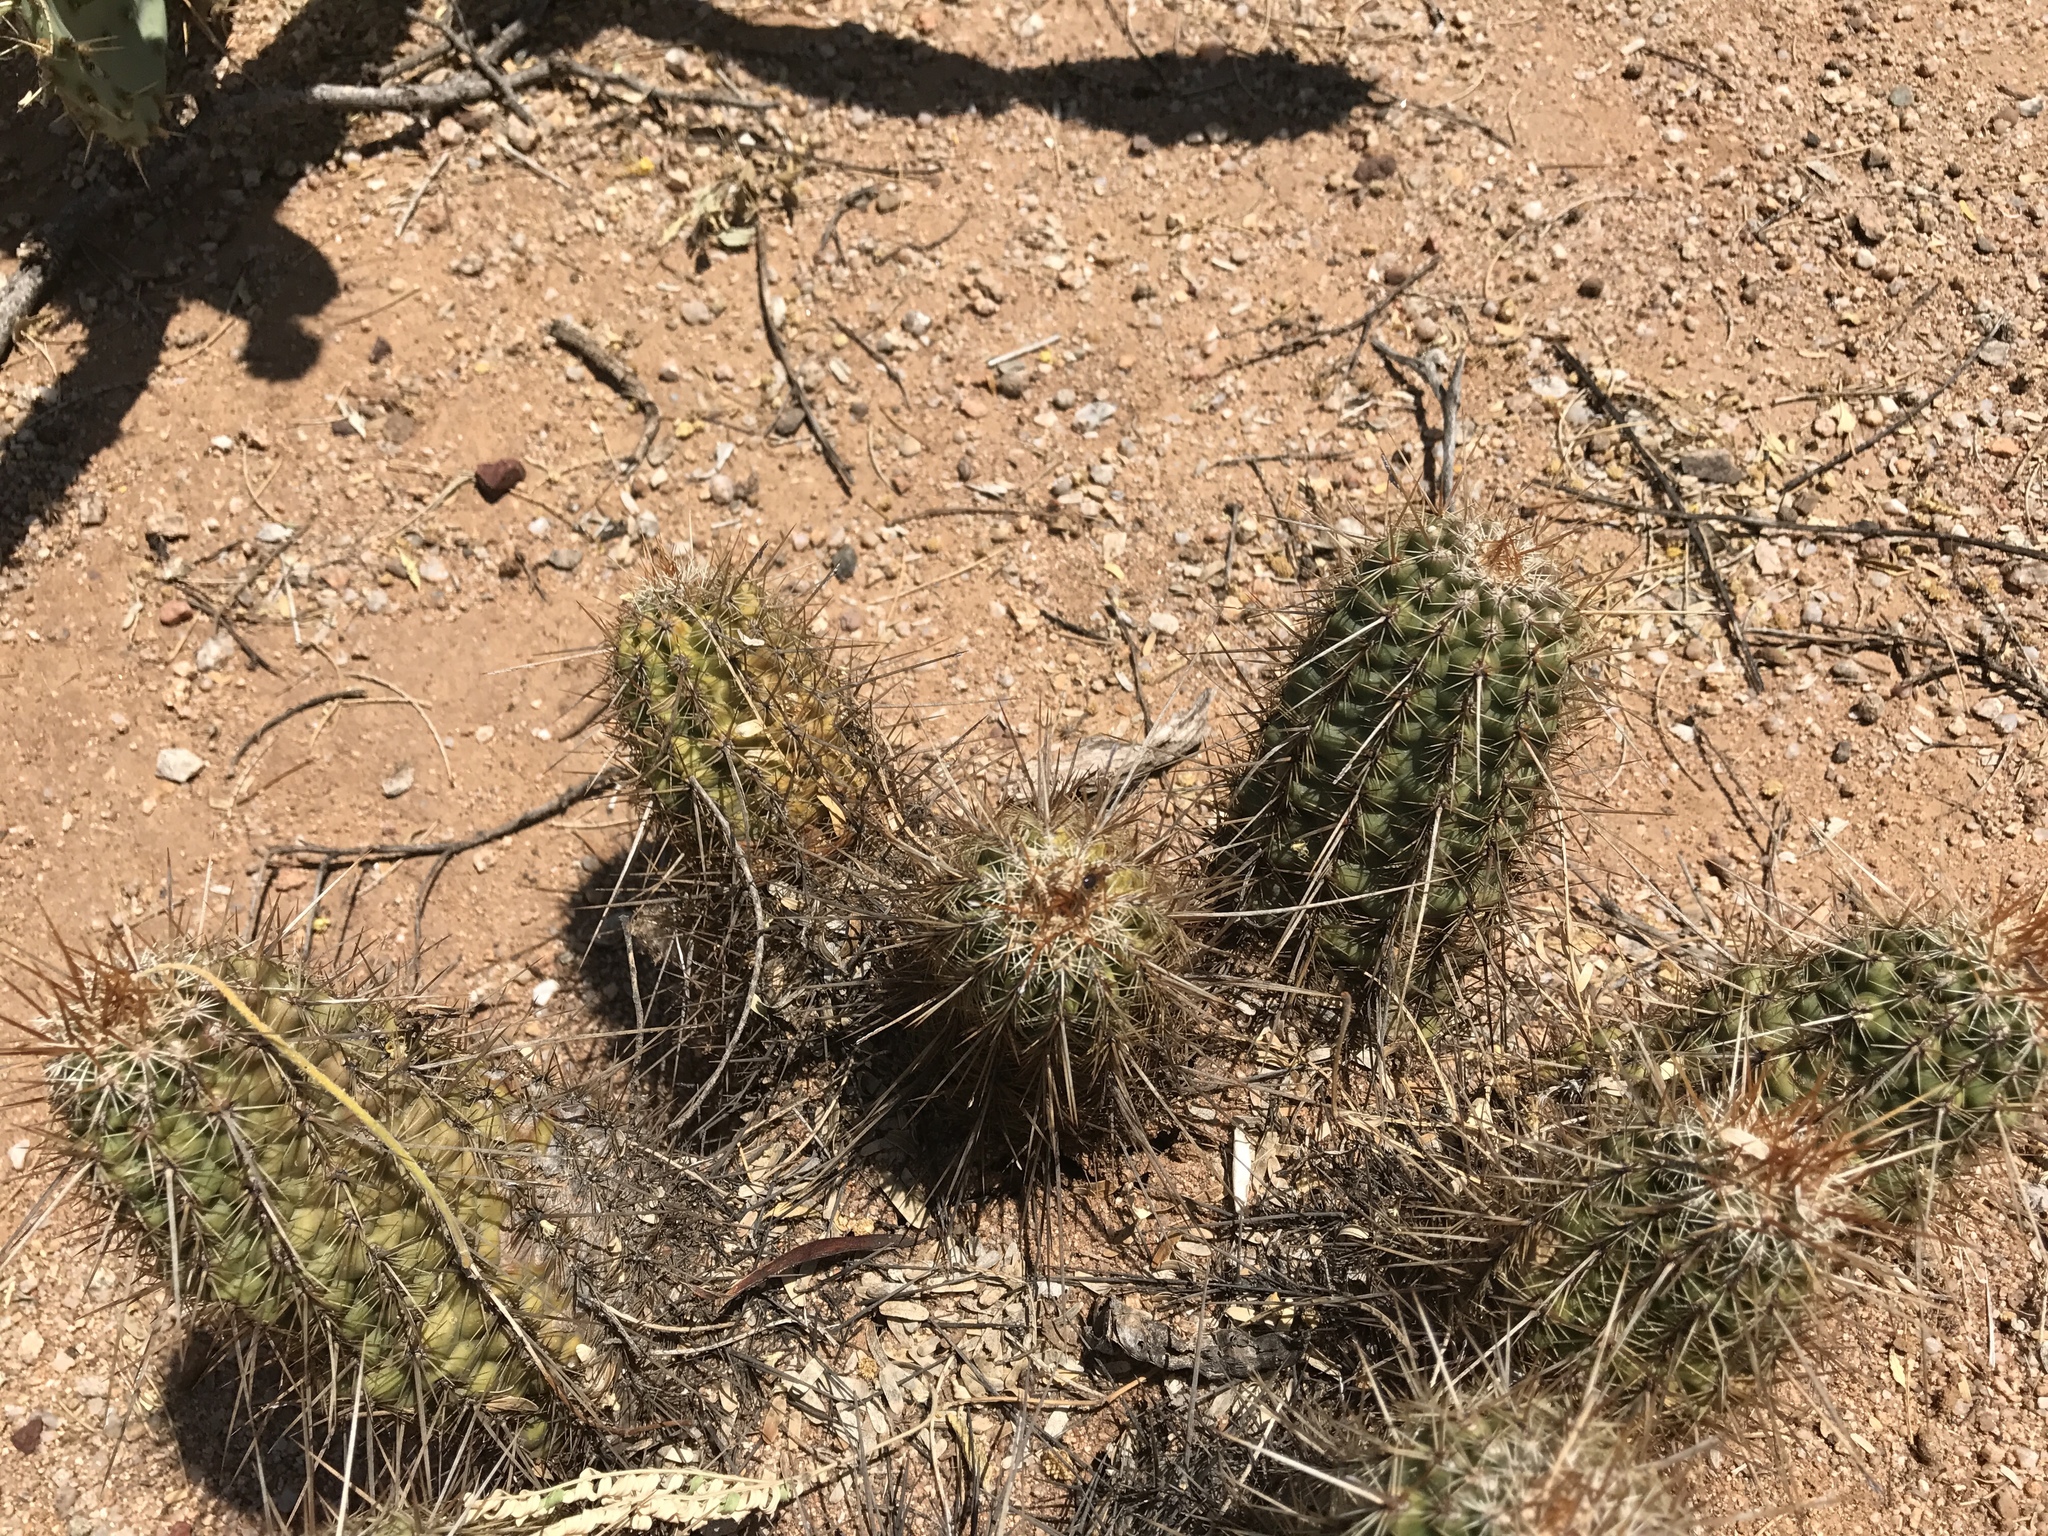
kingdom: Plantae
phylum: Tracheophyta
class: Magnoliopsida
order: Caryophyllales
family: Cactaceae
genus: Echinocereus
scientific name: Echinocereus fasciculatus
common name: Bundle hedgehog
